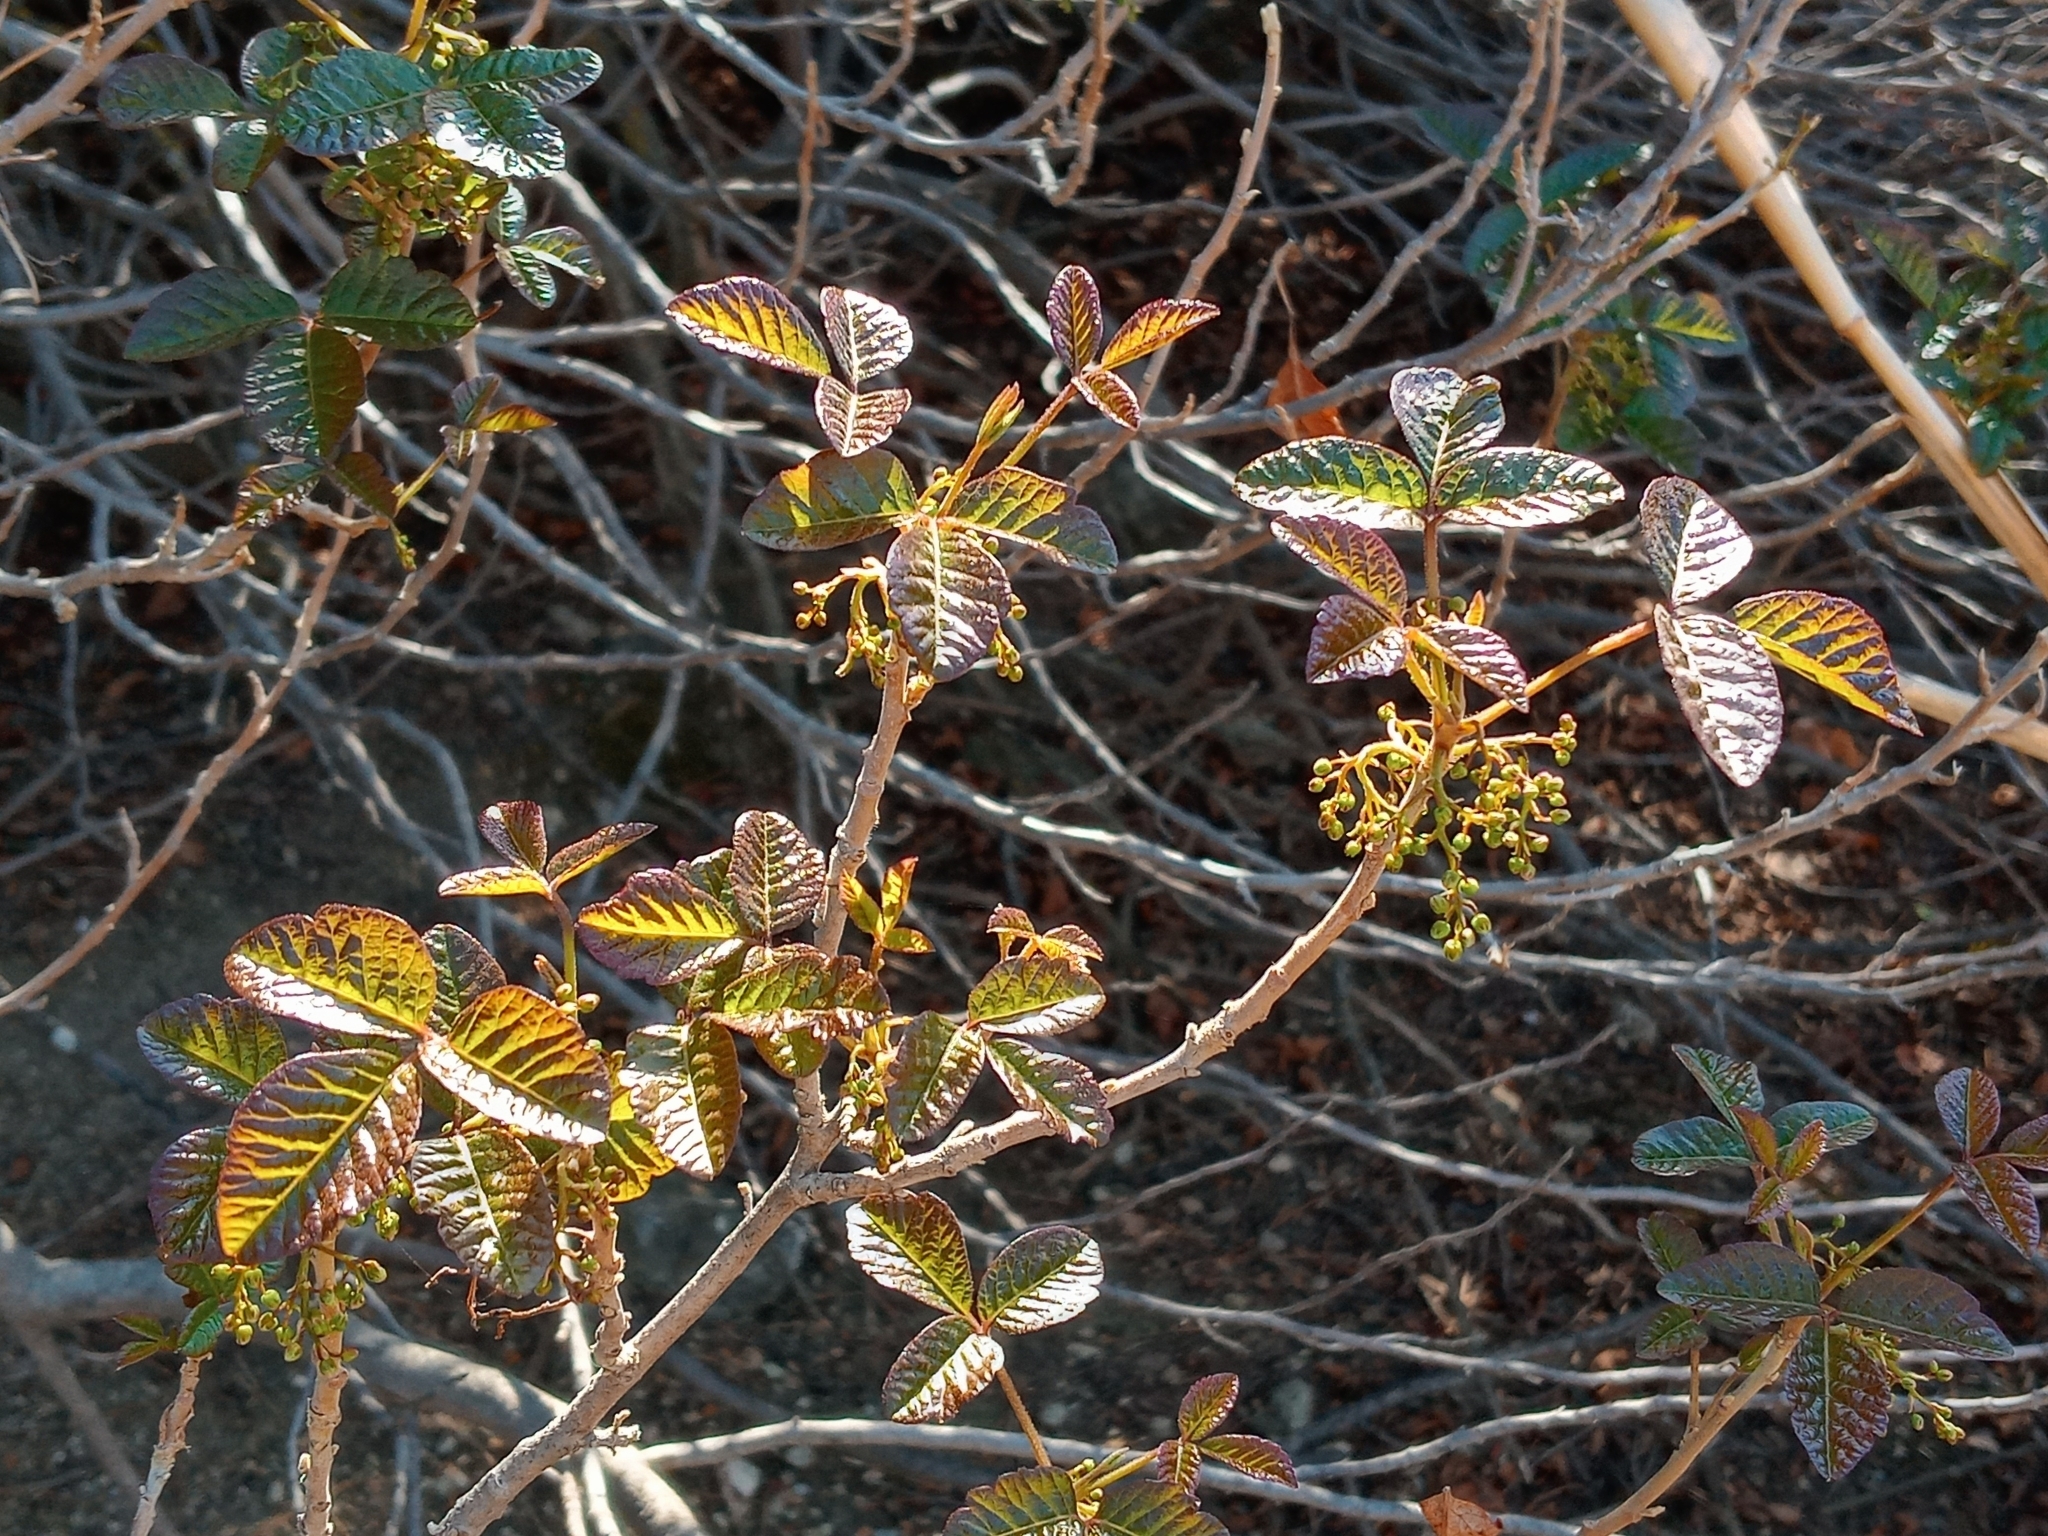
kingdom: Plantae
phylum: Tracheophyta
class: Magnoliopsida
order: Sapindales
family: Anacardiaceae
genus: Toxicodendron
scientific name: Toxicodendron diversilobum
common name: Pacific poison-oak
